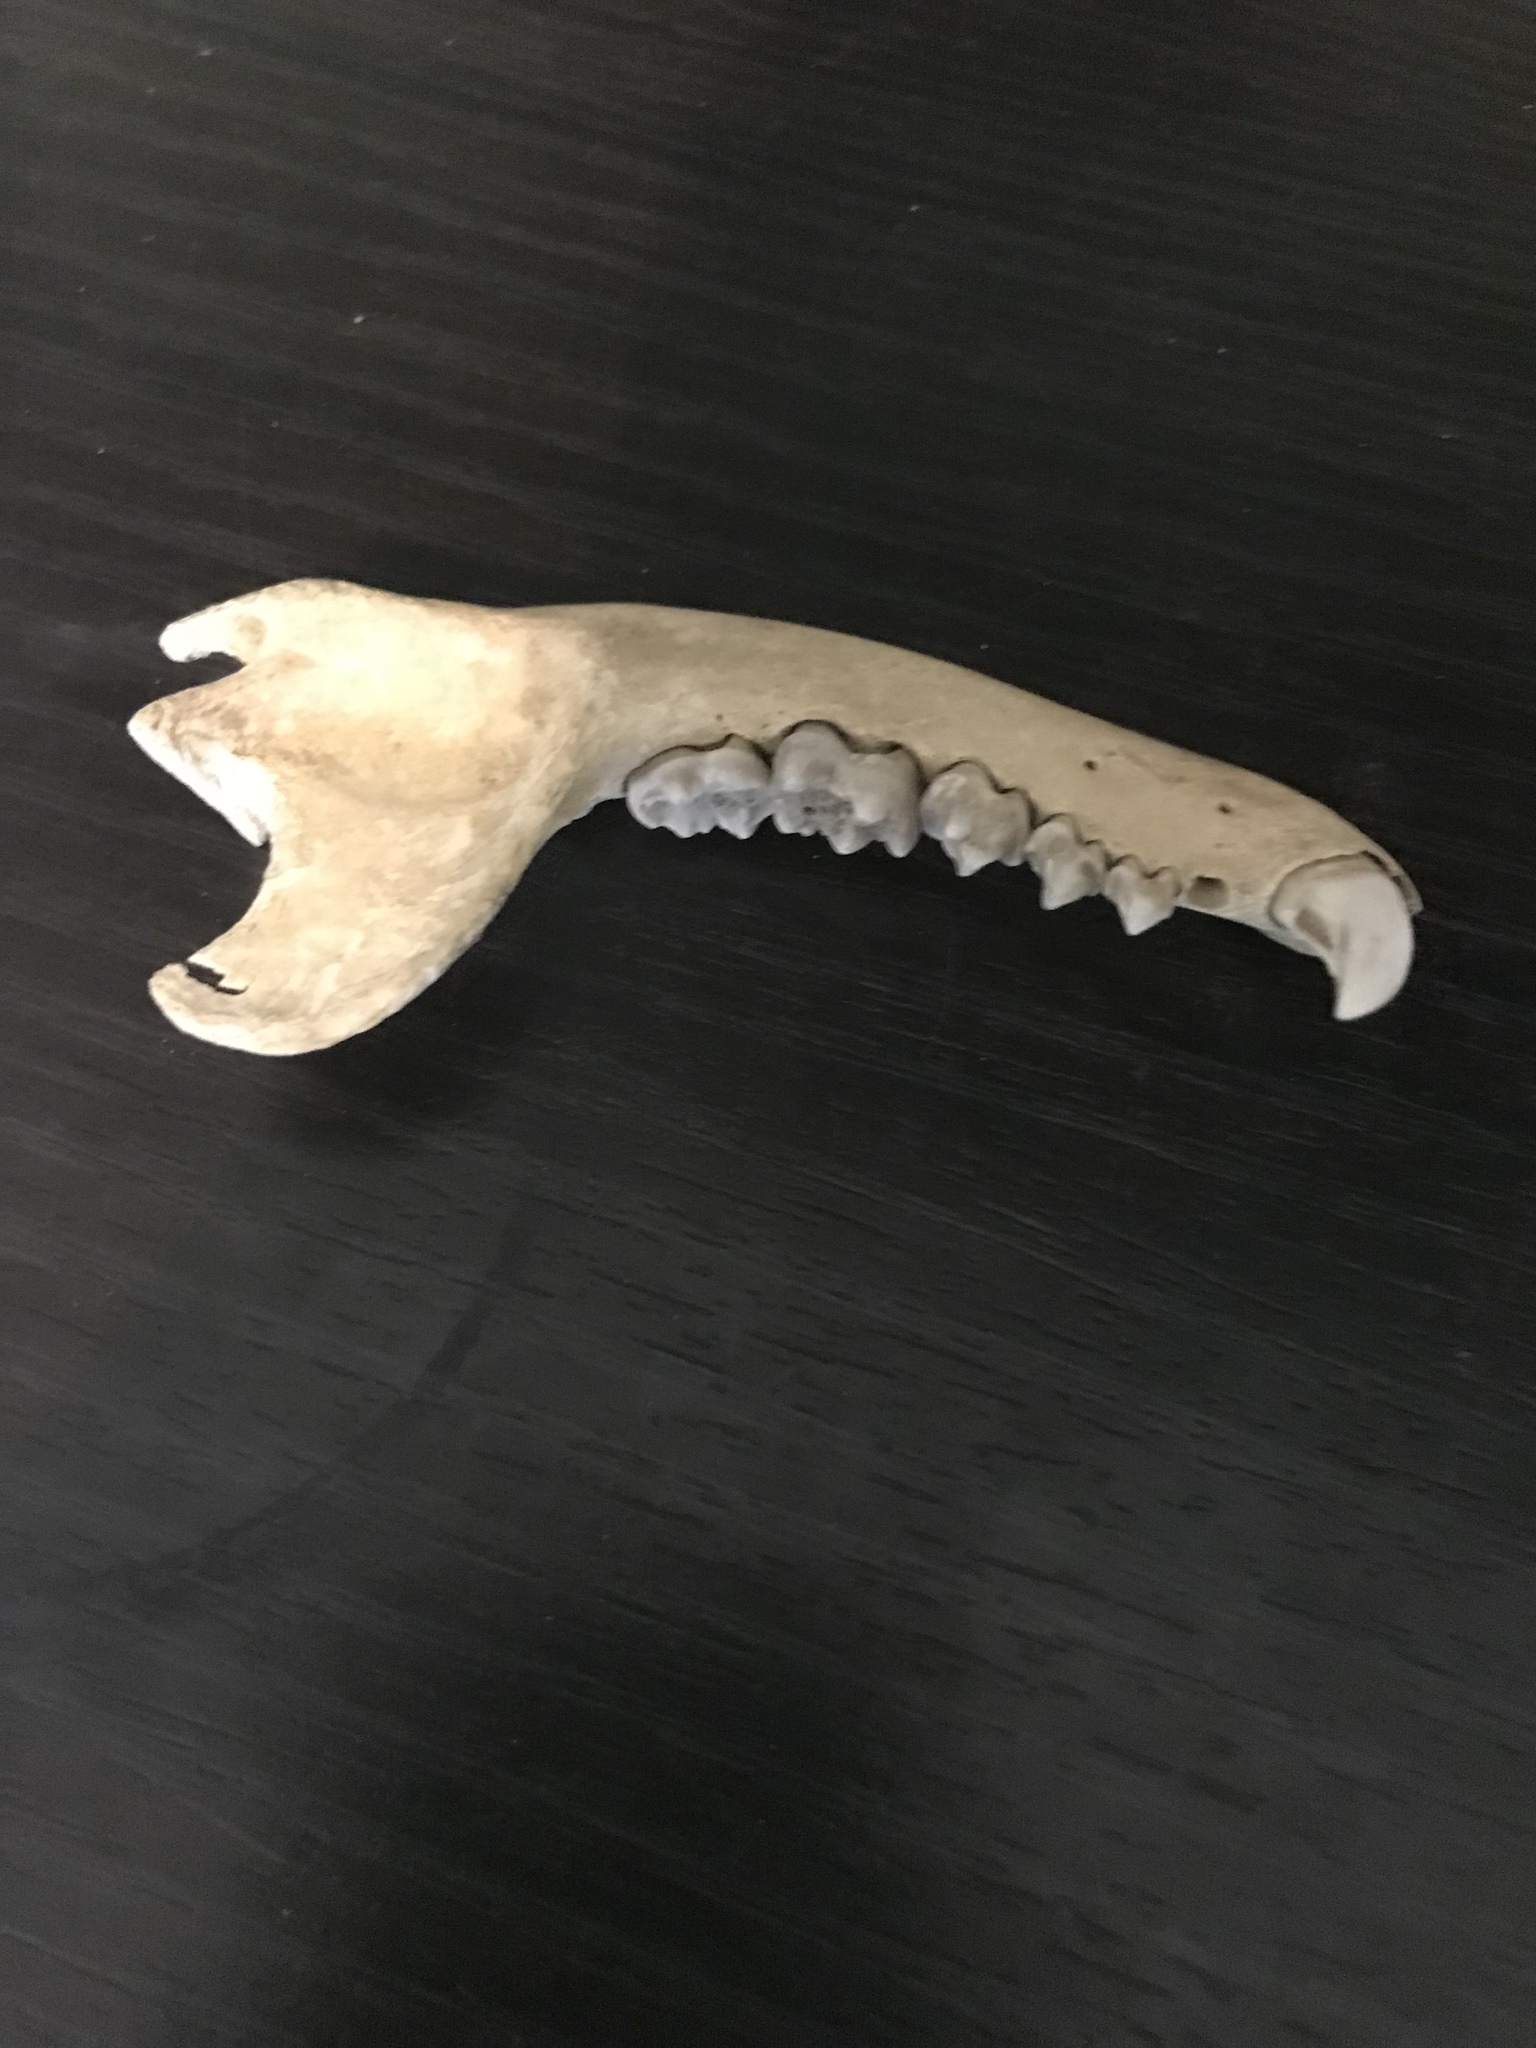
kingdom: Animalia
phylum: Chordata
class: Mammalia
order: Carnivora
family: Procyonidae
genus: Procyon
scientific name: Procyon lotor
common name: Raccoon
